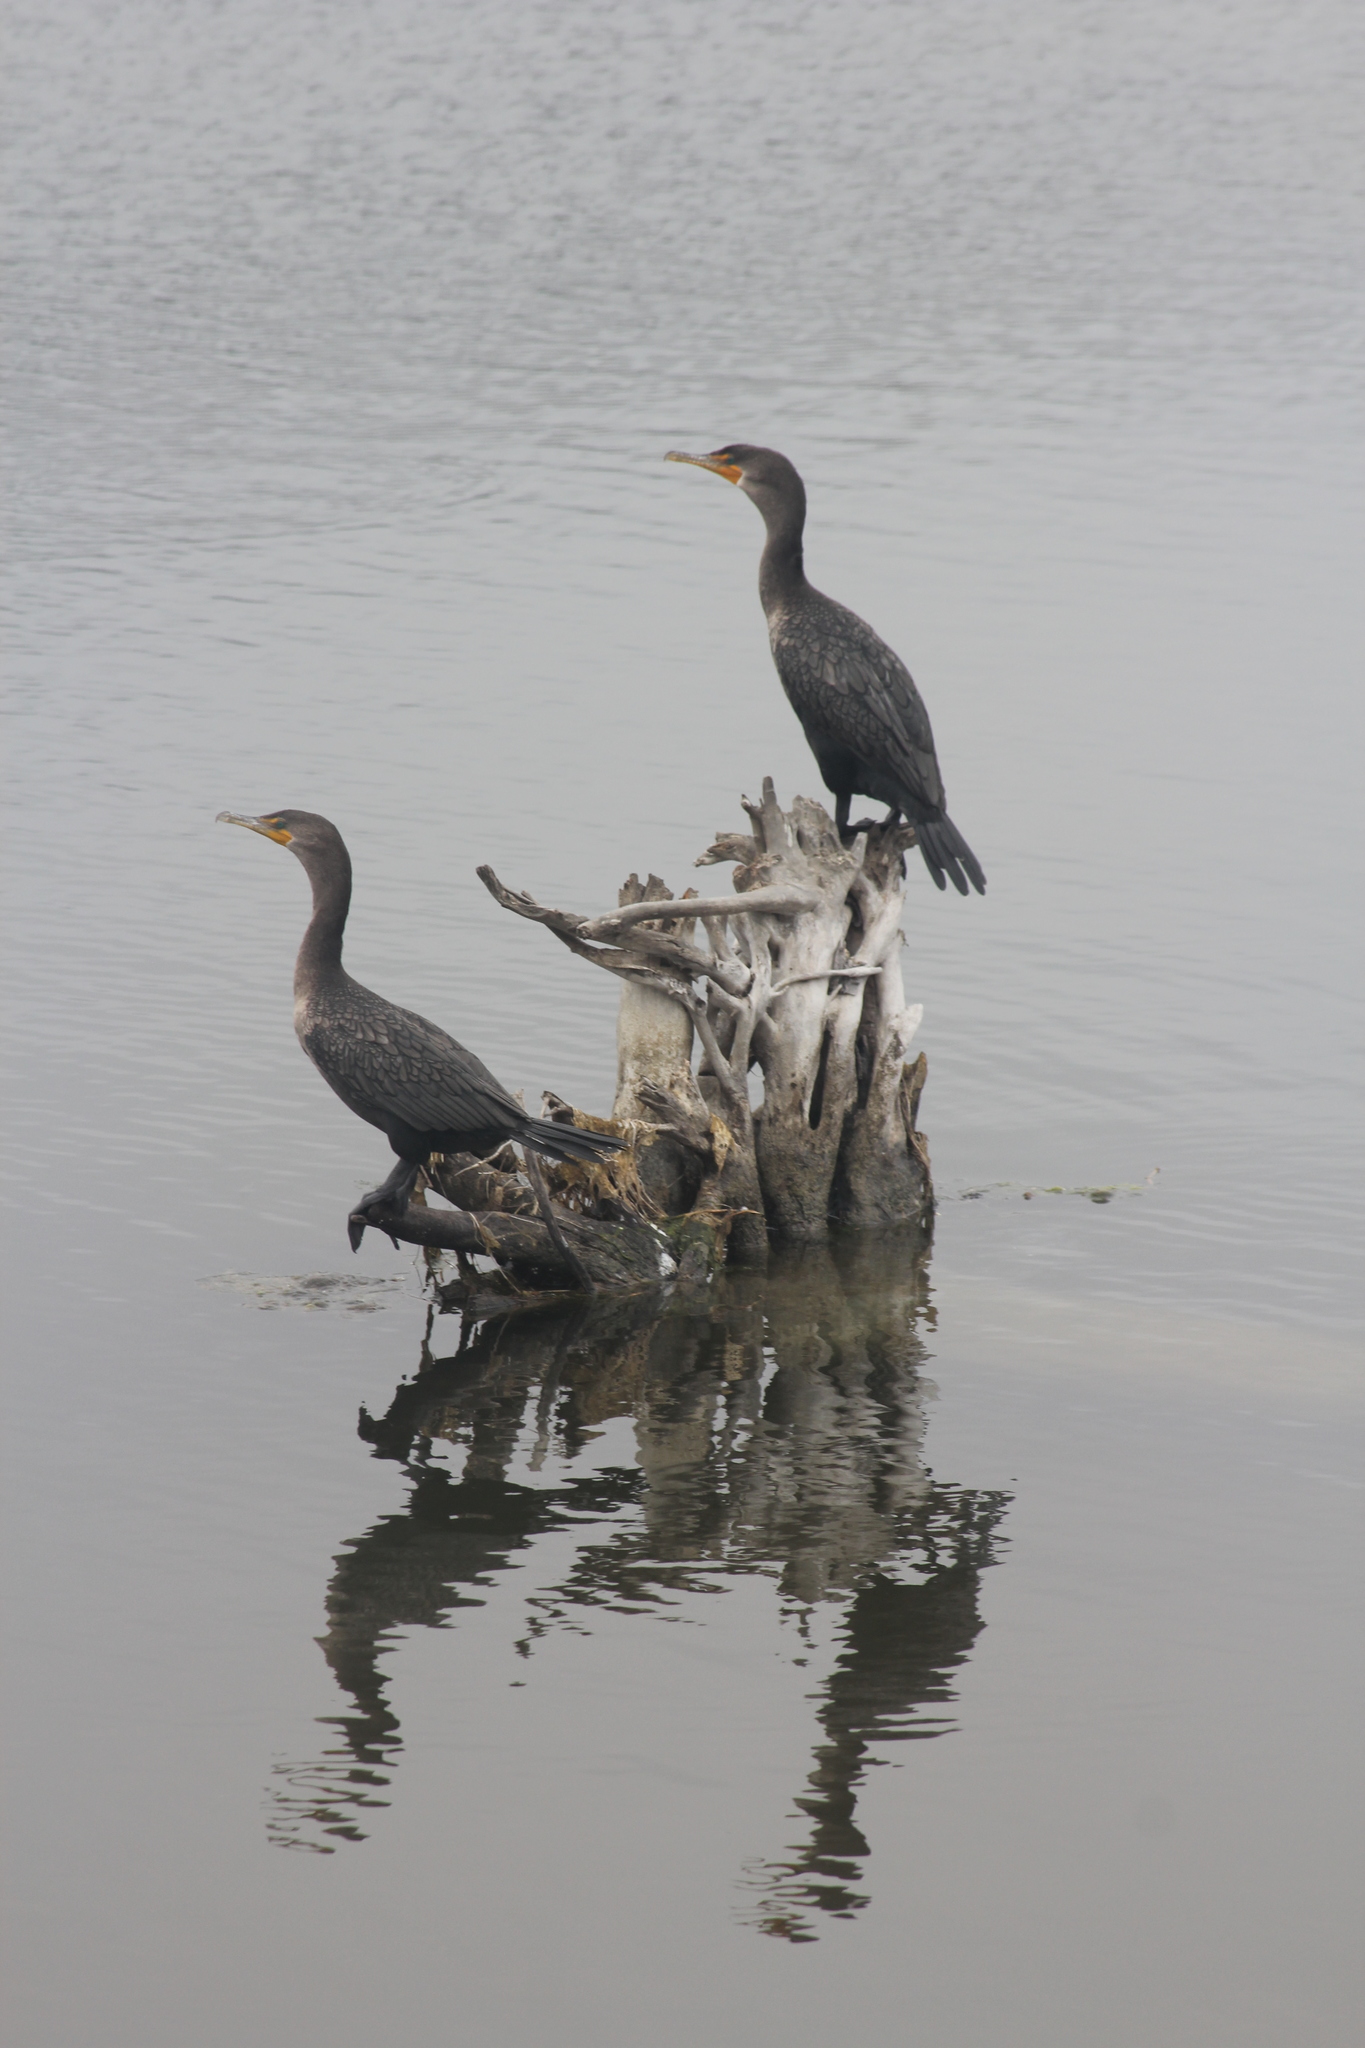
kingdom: Animalia
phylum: Chordata
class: Aves
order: Suliformes
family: Phalacrocoracidae
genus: Phalacrocorax
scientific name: Phalacrocorax auritus
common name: Double-crested cormorant
